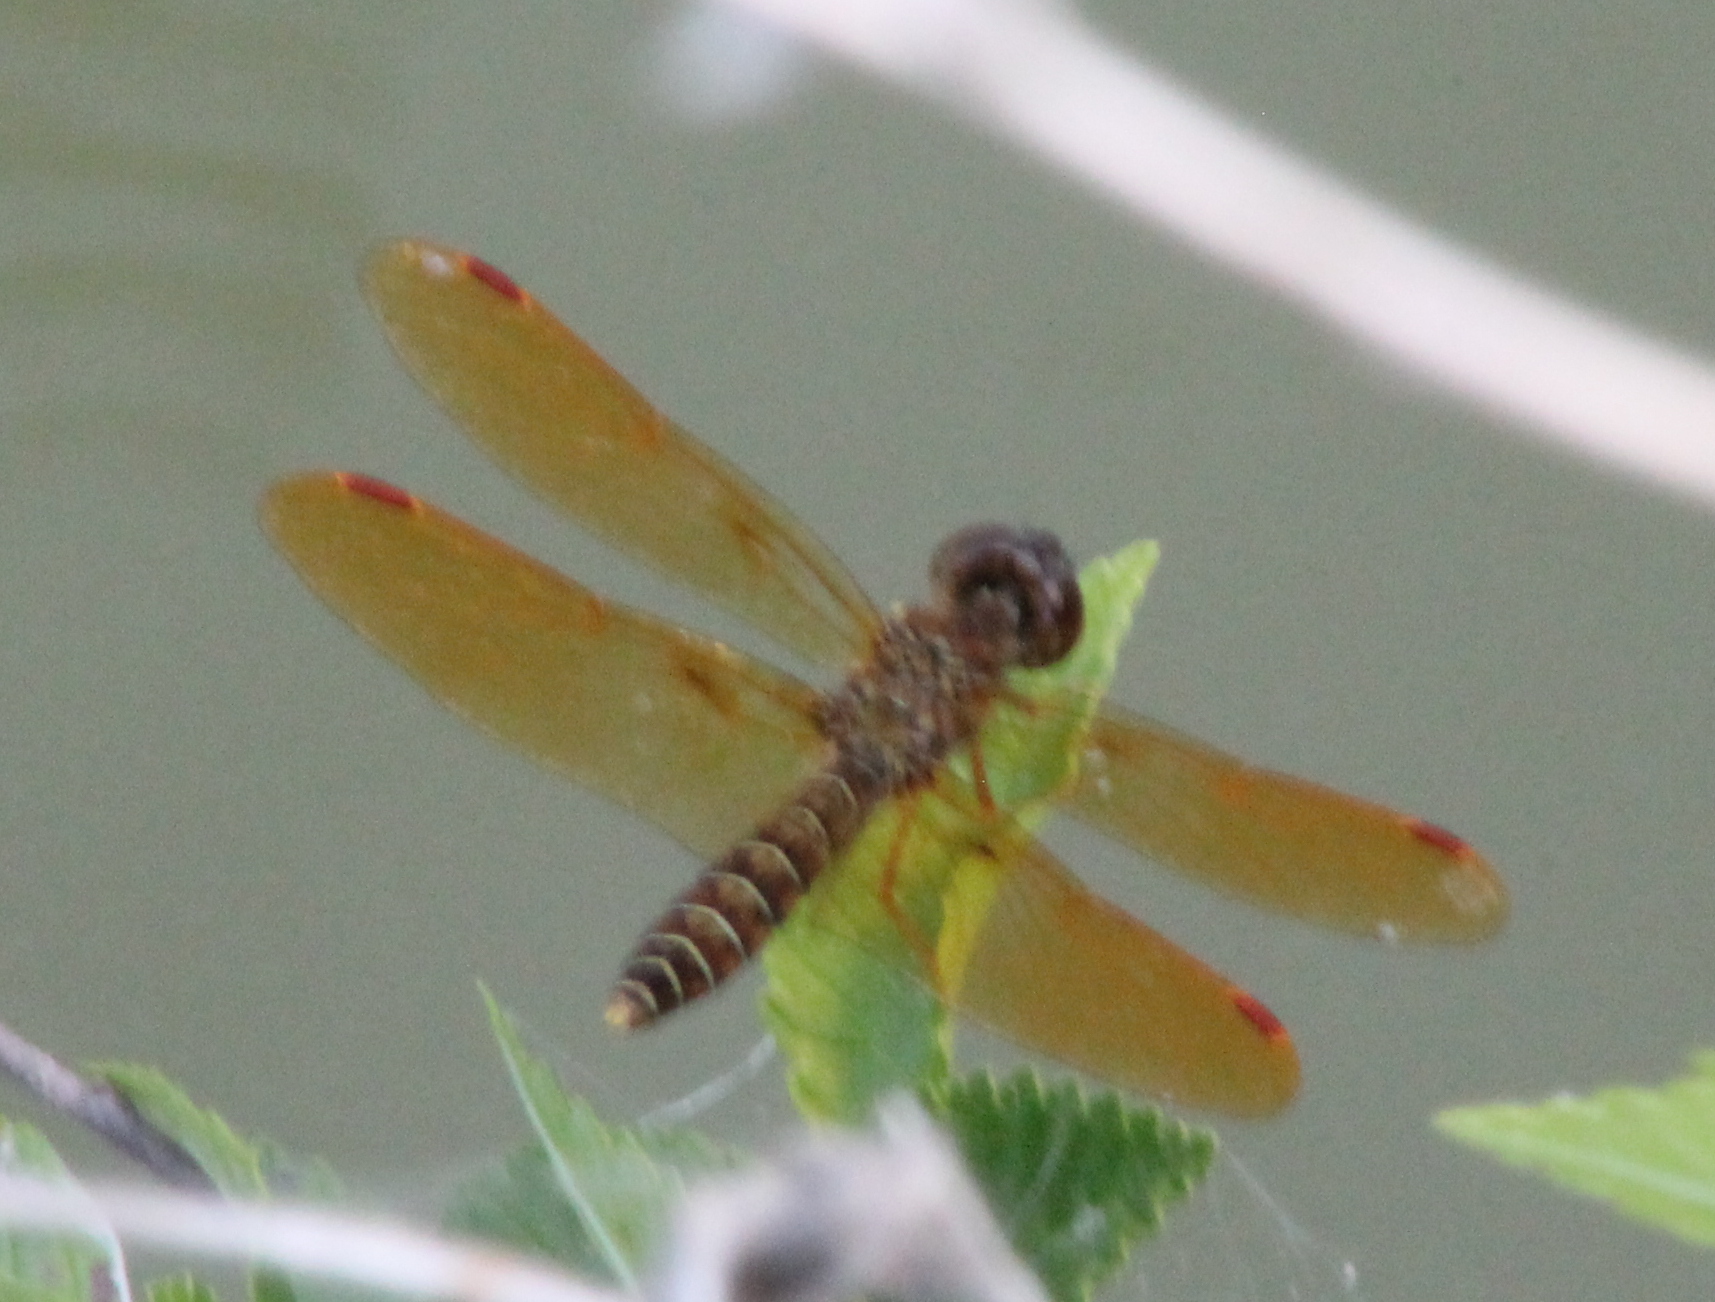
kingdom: Animalia
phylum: Arthropoda
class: Insecta
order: Odonata
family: Libellulidae
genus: Perithemis
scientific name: Perithemis tenera
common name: Eastern amberwing
